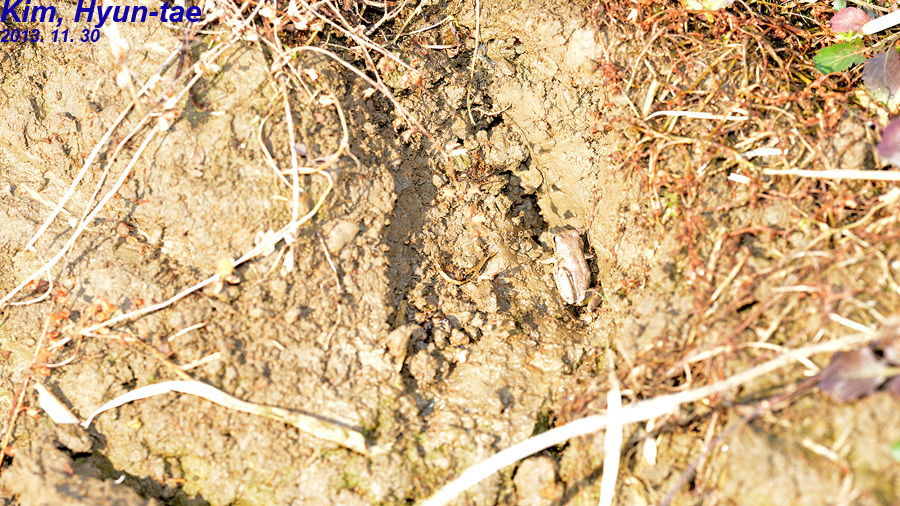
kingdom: Animalia
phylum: Chordata
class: Amphibia
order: Anura
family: Hylidae
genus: Dryophytes
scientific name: Dryophytes japonicus
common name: Japanese treefrog
